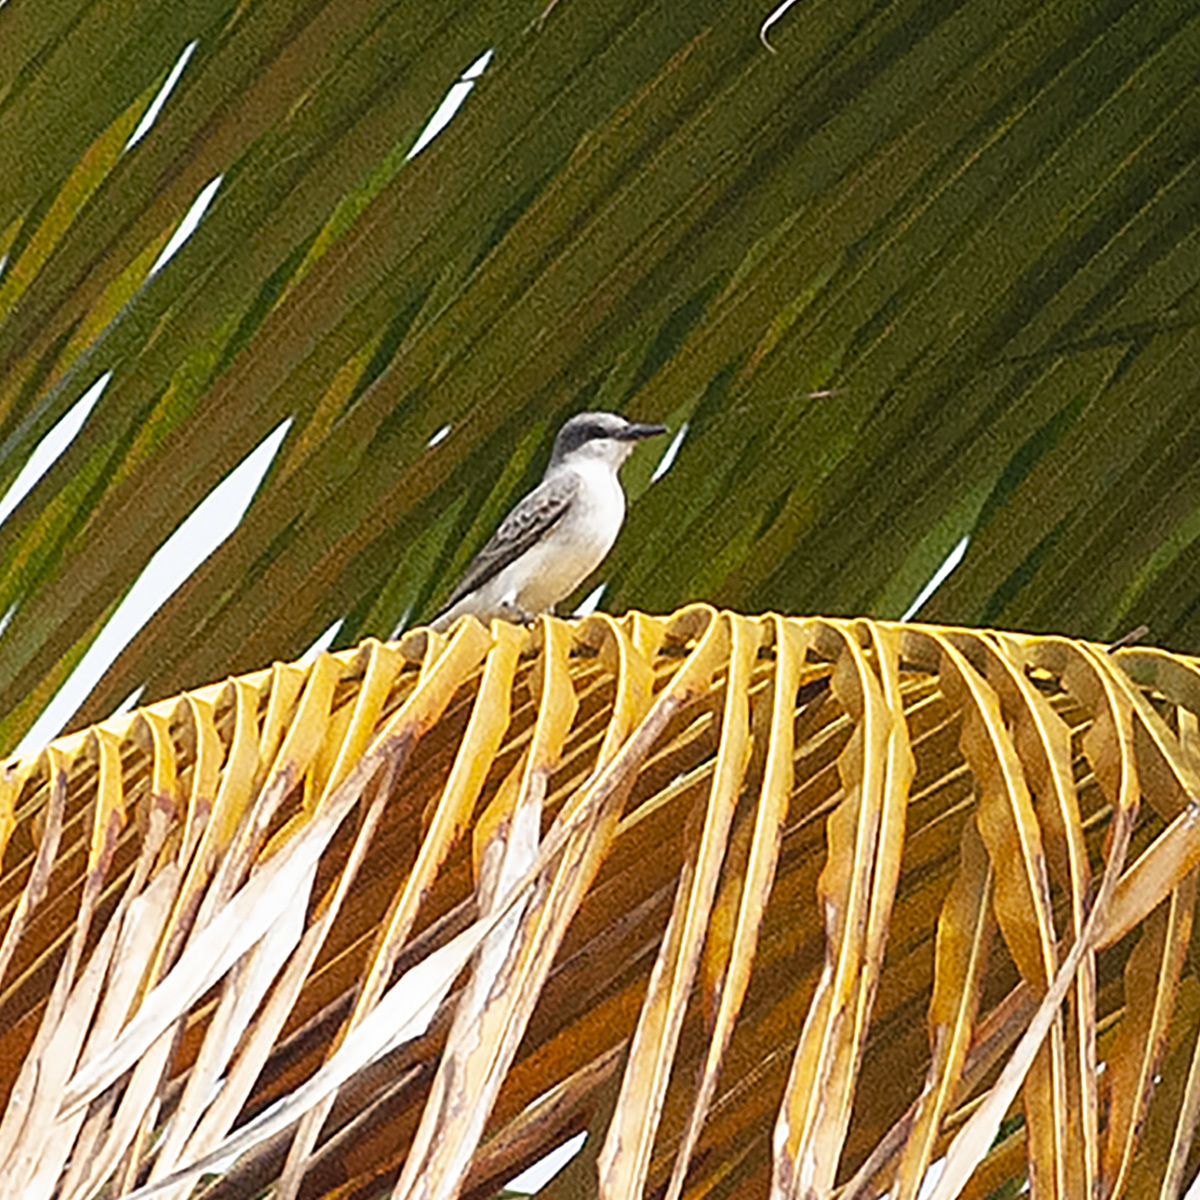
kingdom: Animalia
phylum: Chordata
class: Aves
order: Passeriformes
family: Tyrannidae
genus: Tyrannus
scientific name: Tyrannus dominicensis
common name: Gray kingbird
